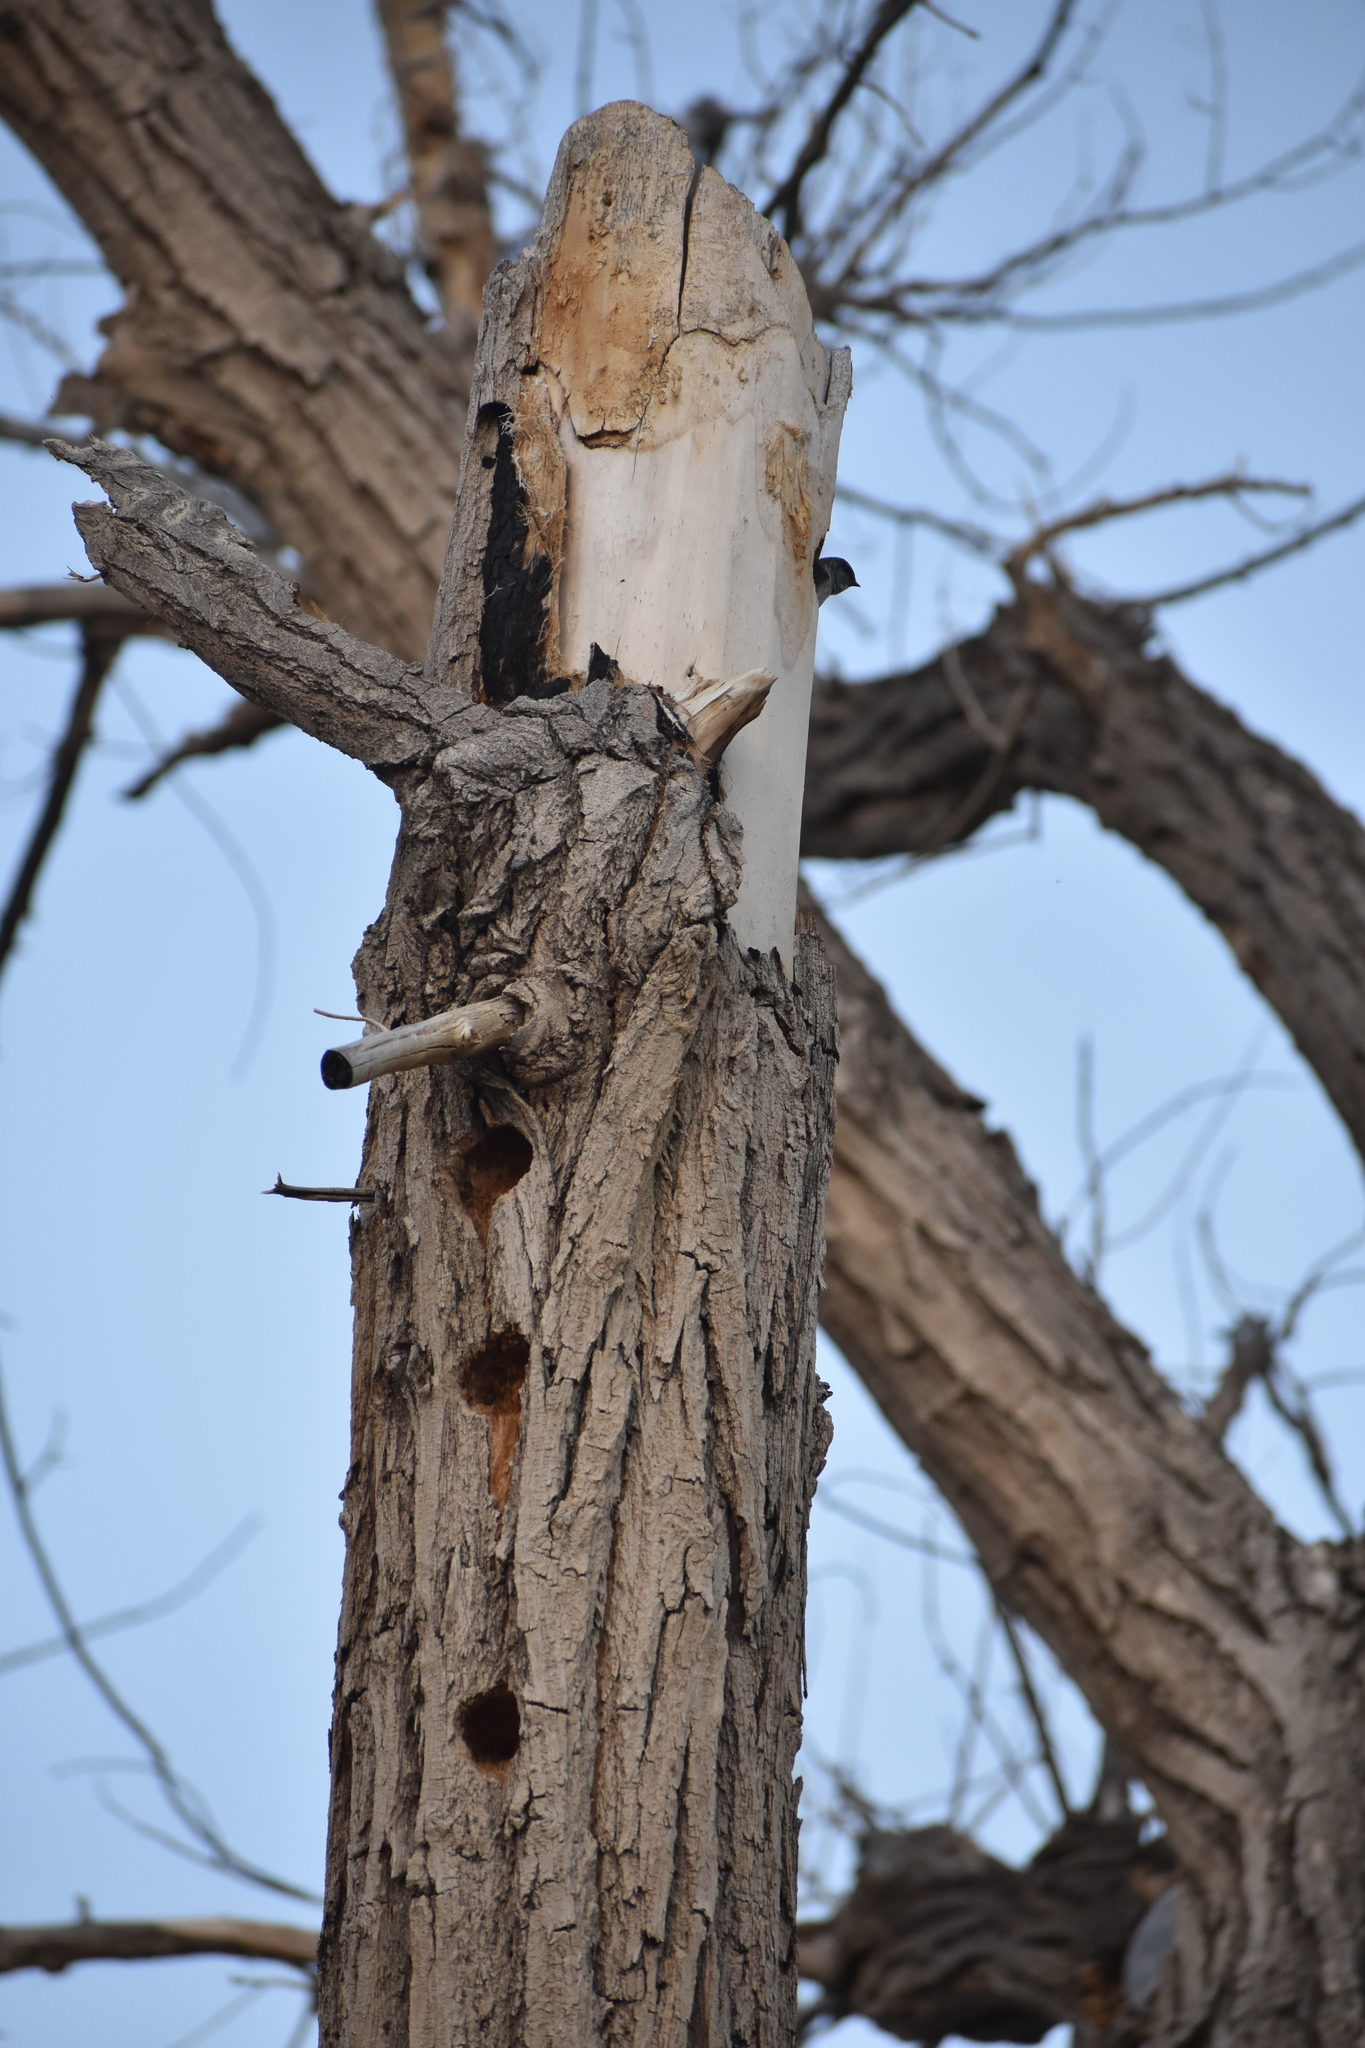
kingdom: Animalia
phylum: Chordata
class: Aves
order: Passeriformes
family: Hirundinidae
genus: Tachycineta
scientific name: Tachycineta thalassina
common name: Violet-green swallow
